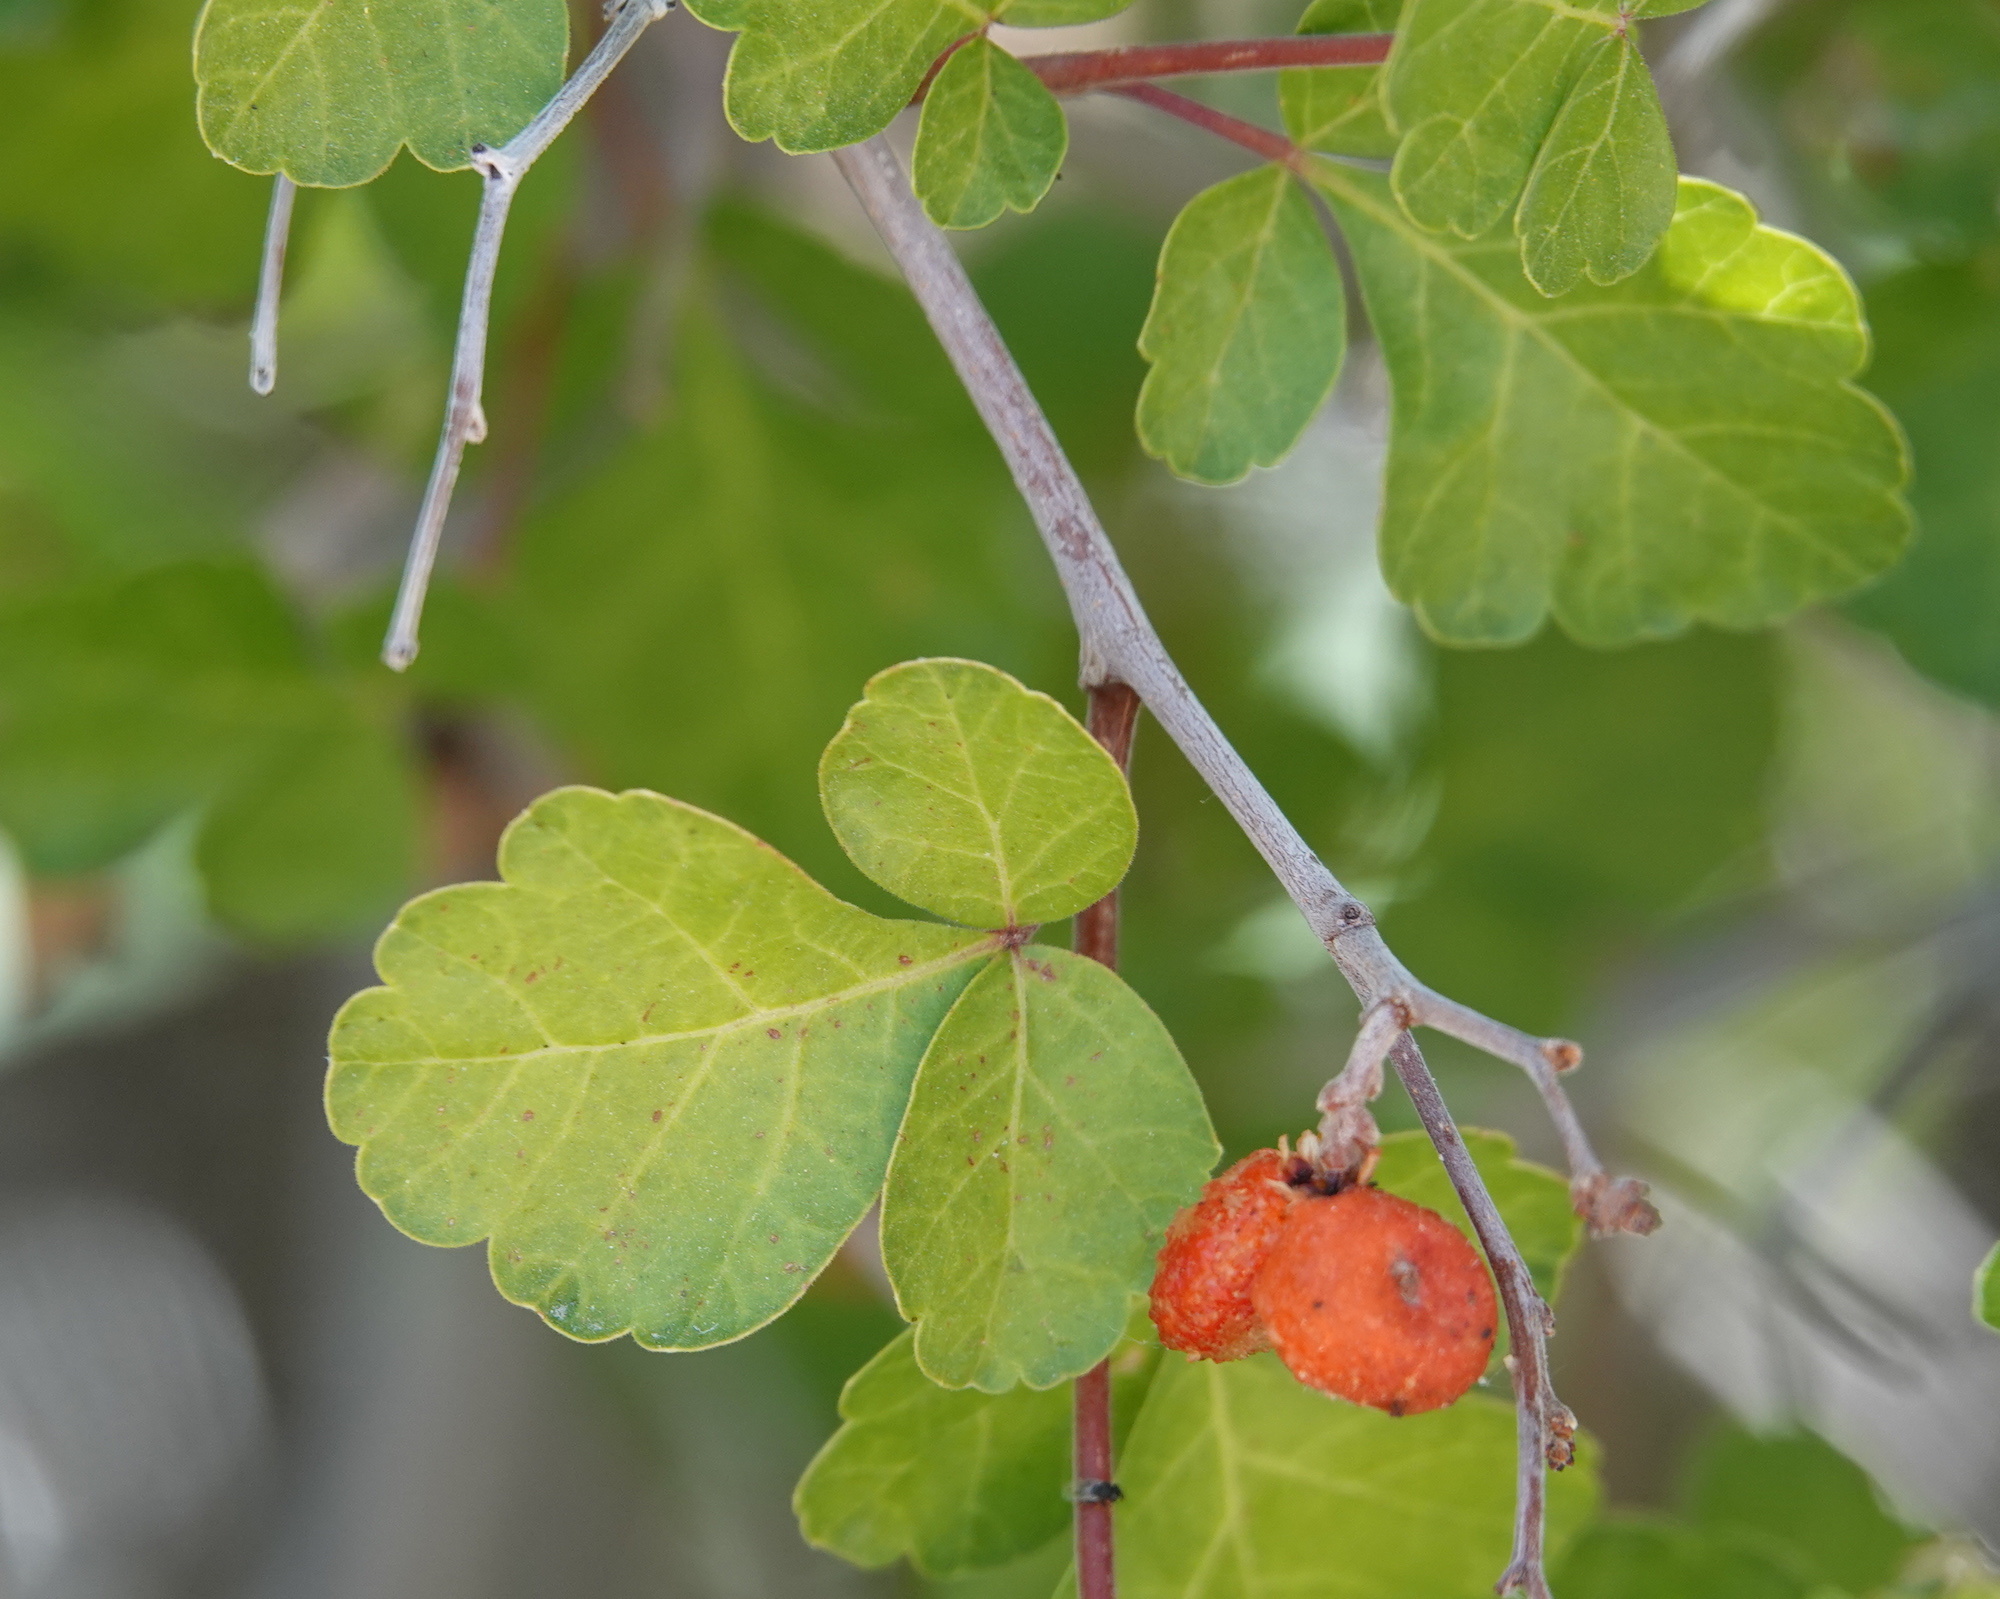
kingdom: Plantae
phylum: Tracheophyta
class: Magnoliopsida
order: Sapindales
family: Anacardiaceae
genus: Rhus
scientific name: Rhus aromatica
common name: Aromatic sumac
